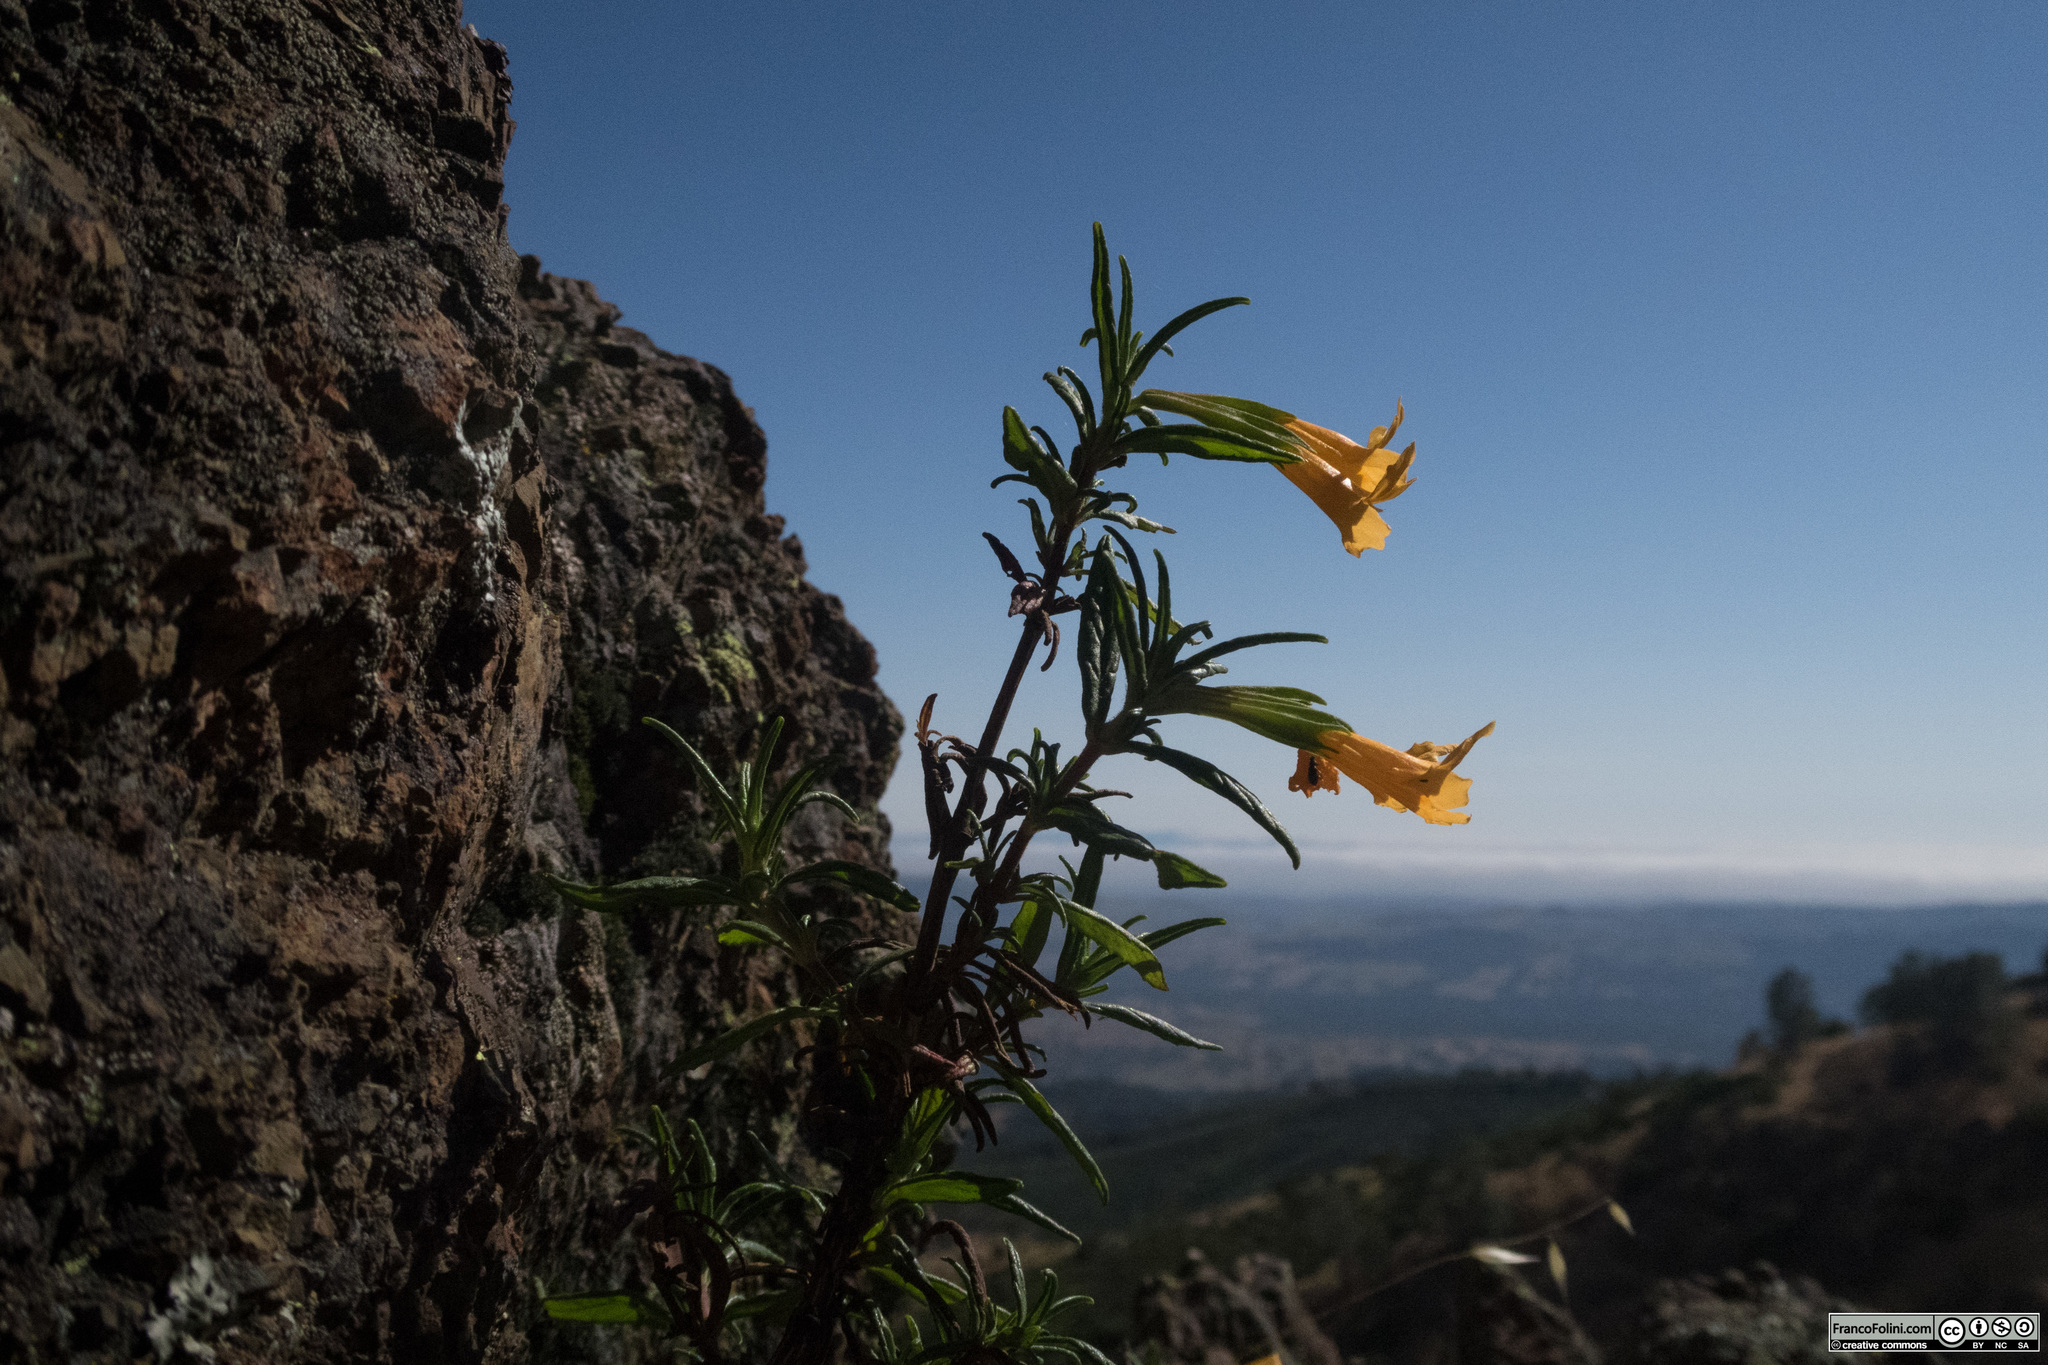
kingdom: Plantae
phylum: Tracheophyta
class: Magnoliopsida
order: Lamiales
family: Phrymaceae
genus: Diplacus
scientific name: Diplacus aurantiacus
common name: Bush monkey-flower
